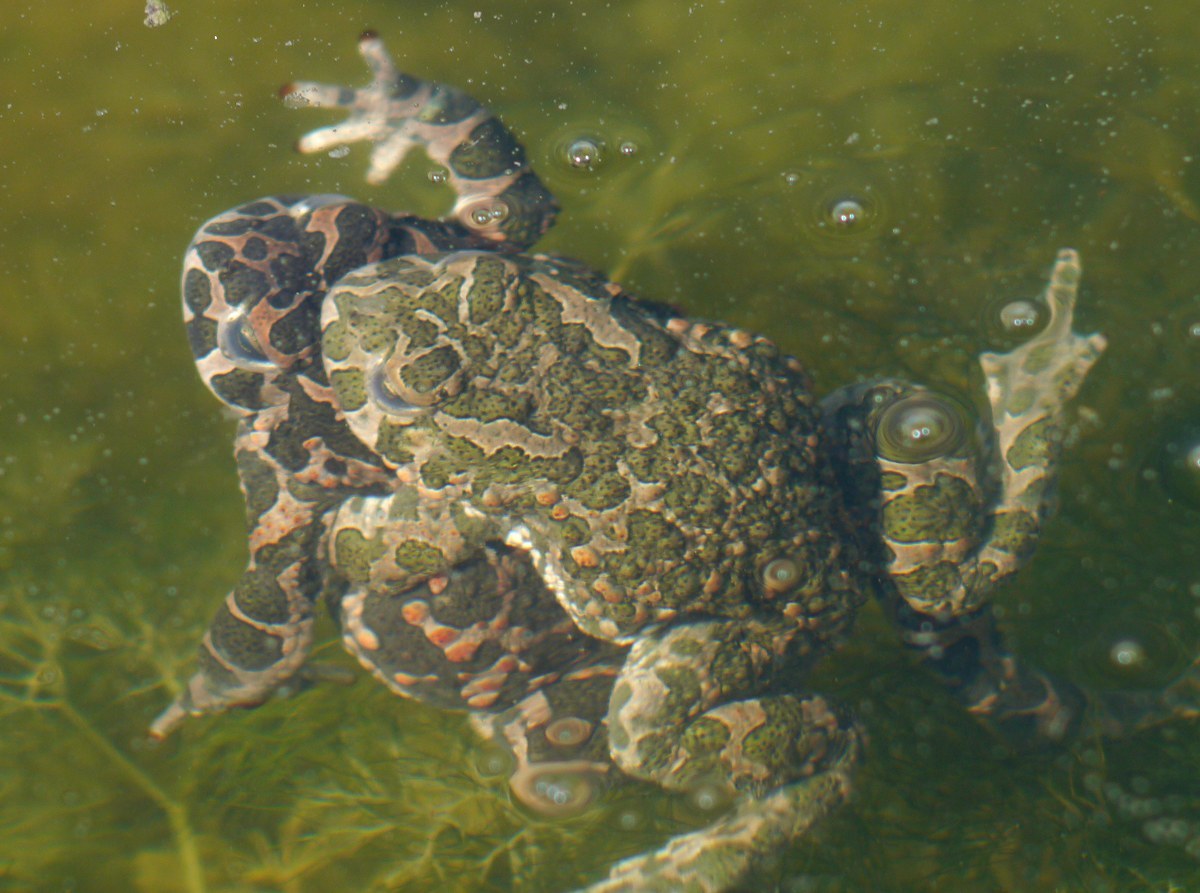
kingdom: Animalia
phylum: Chordata
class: Amphibia
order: Anura
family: Bufonidae
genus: Bufotes
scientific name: Bufotes viridis
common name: European green toad
